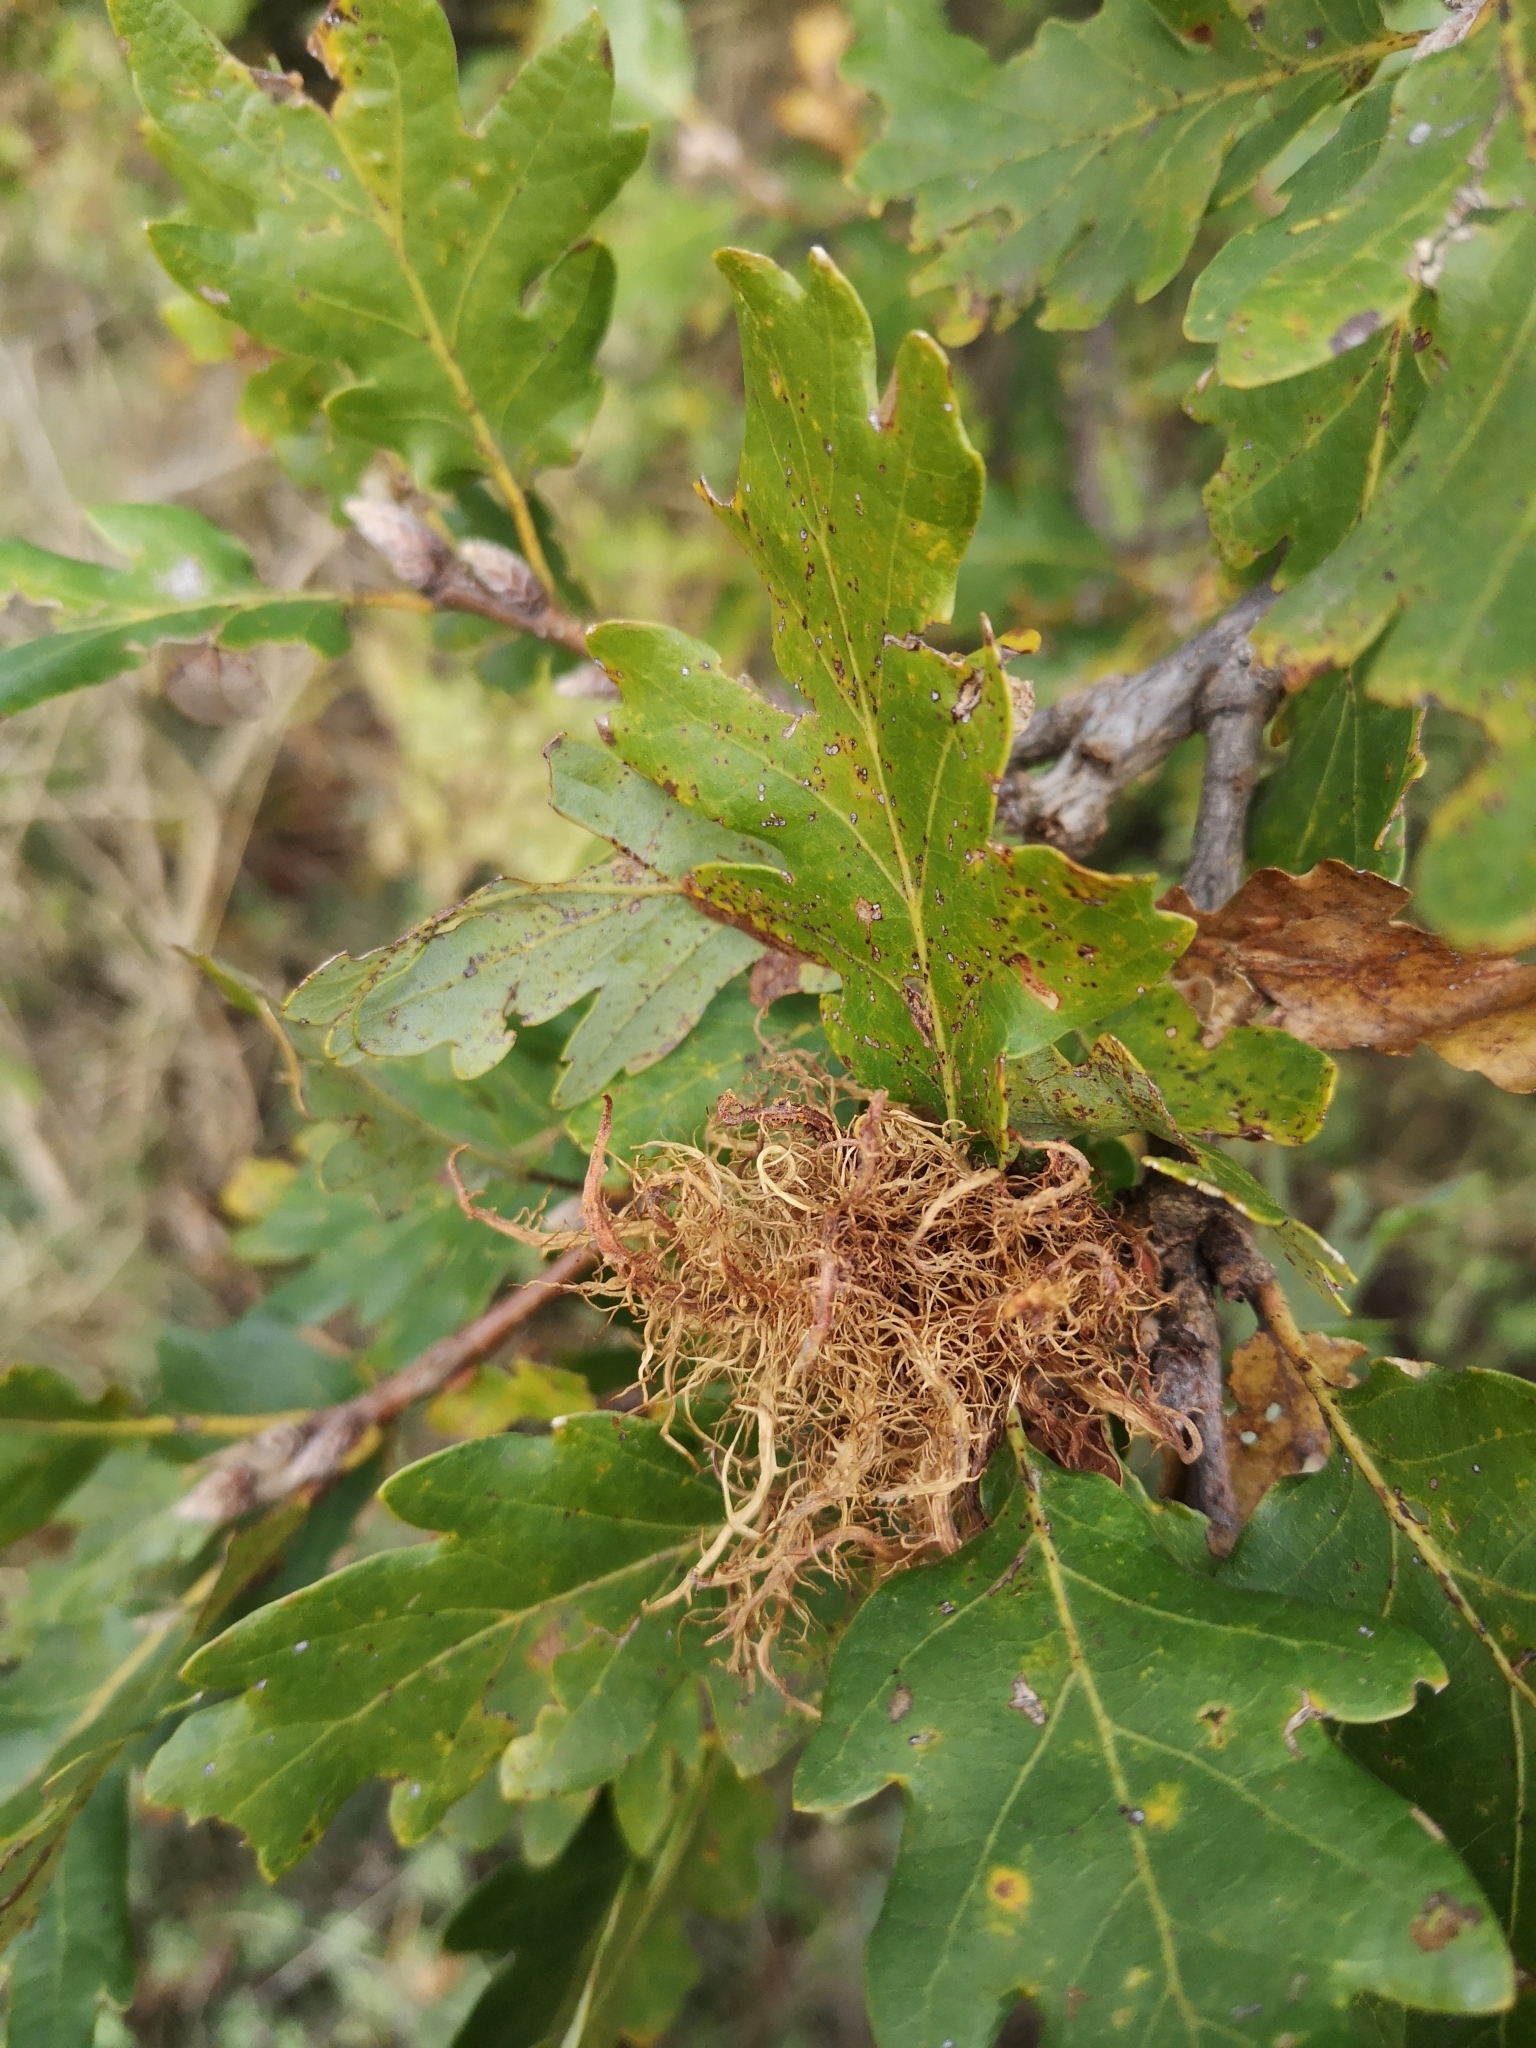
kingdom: Animalia
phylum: Arthropoda
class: Insecta
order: Hymenoptera
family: Cynipidae
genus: Andricus
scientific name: Andricus caputmedusae
